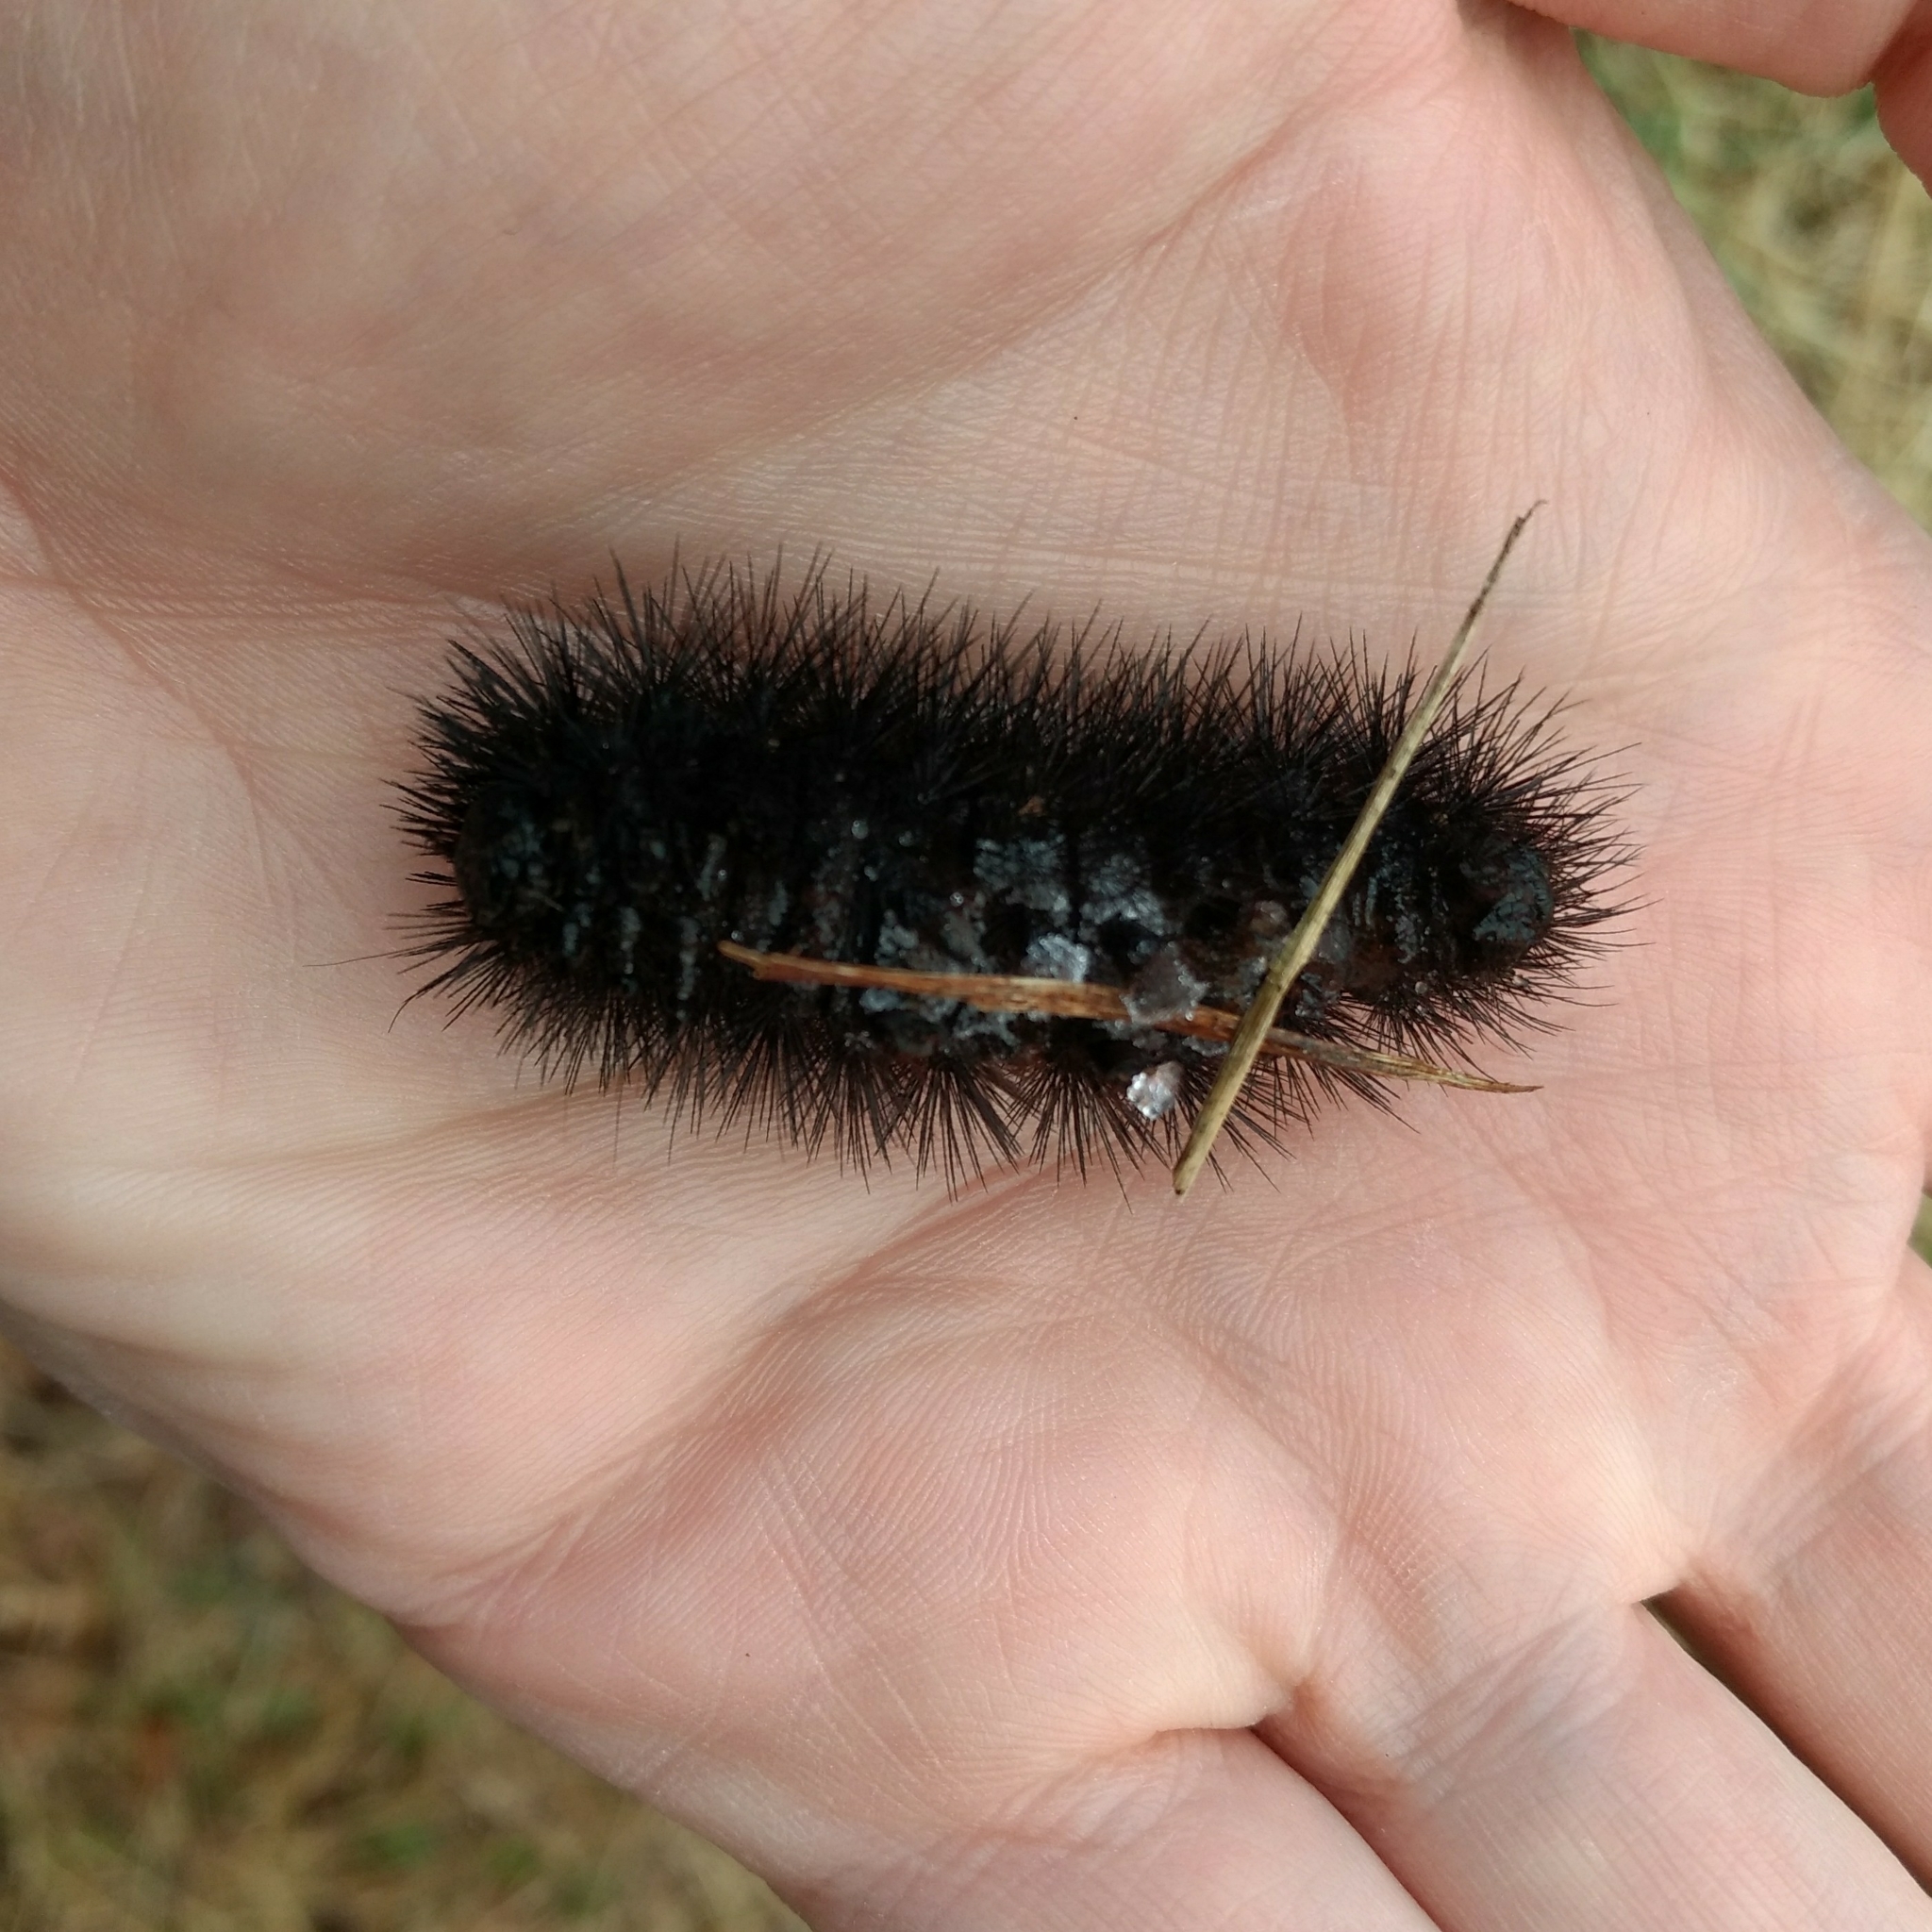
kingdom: Animalia
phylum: Arthropoda
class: Insecta
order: Lepidoptera
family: Erebidae
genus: Hypercompe
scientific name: Hypercompe scribonia
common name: Giant leopard moth
